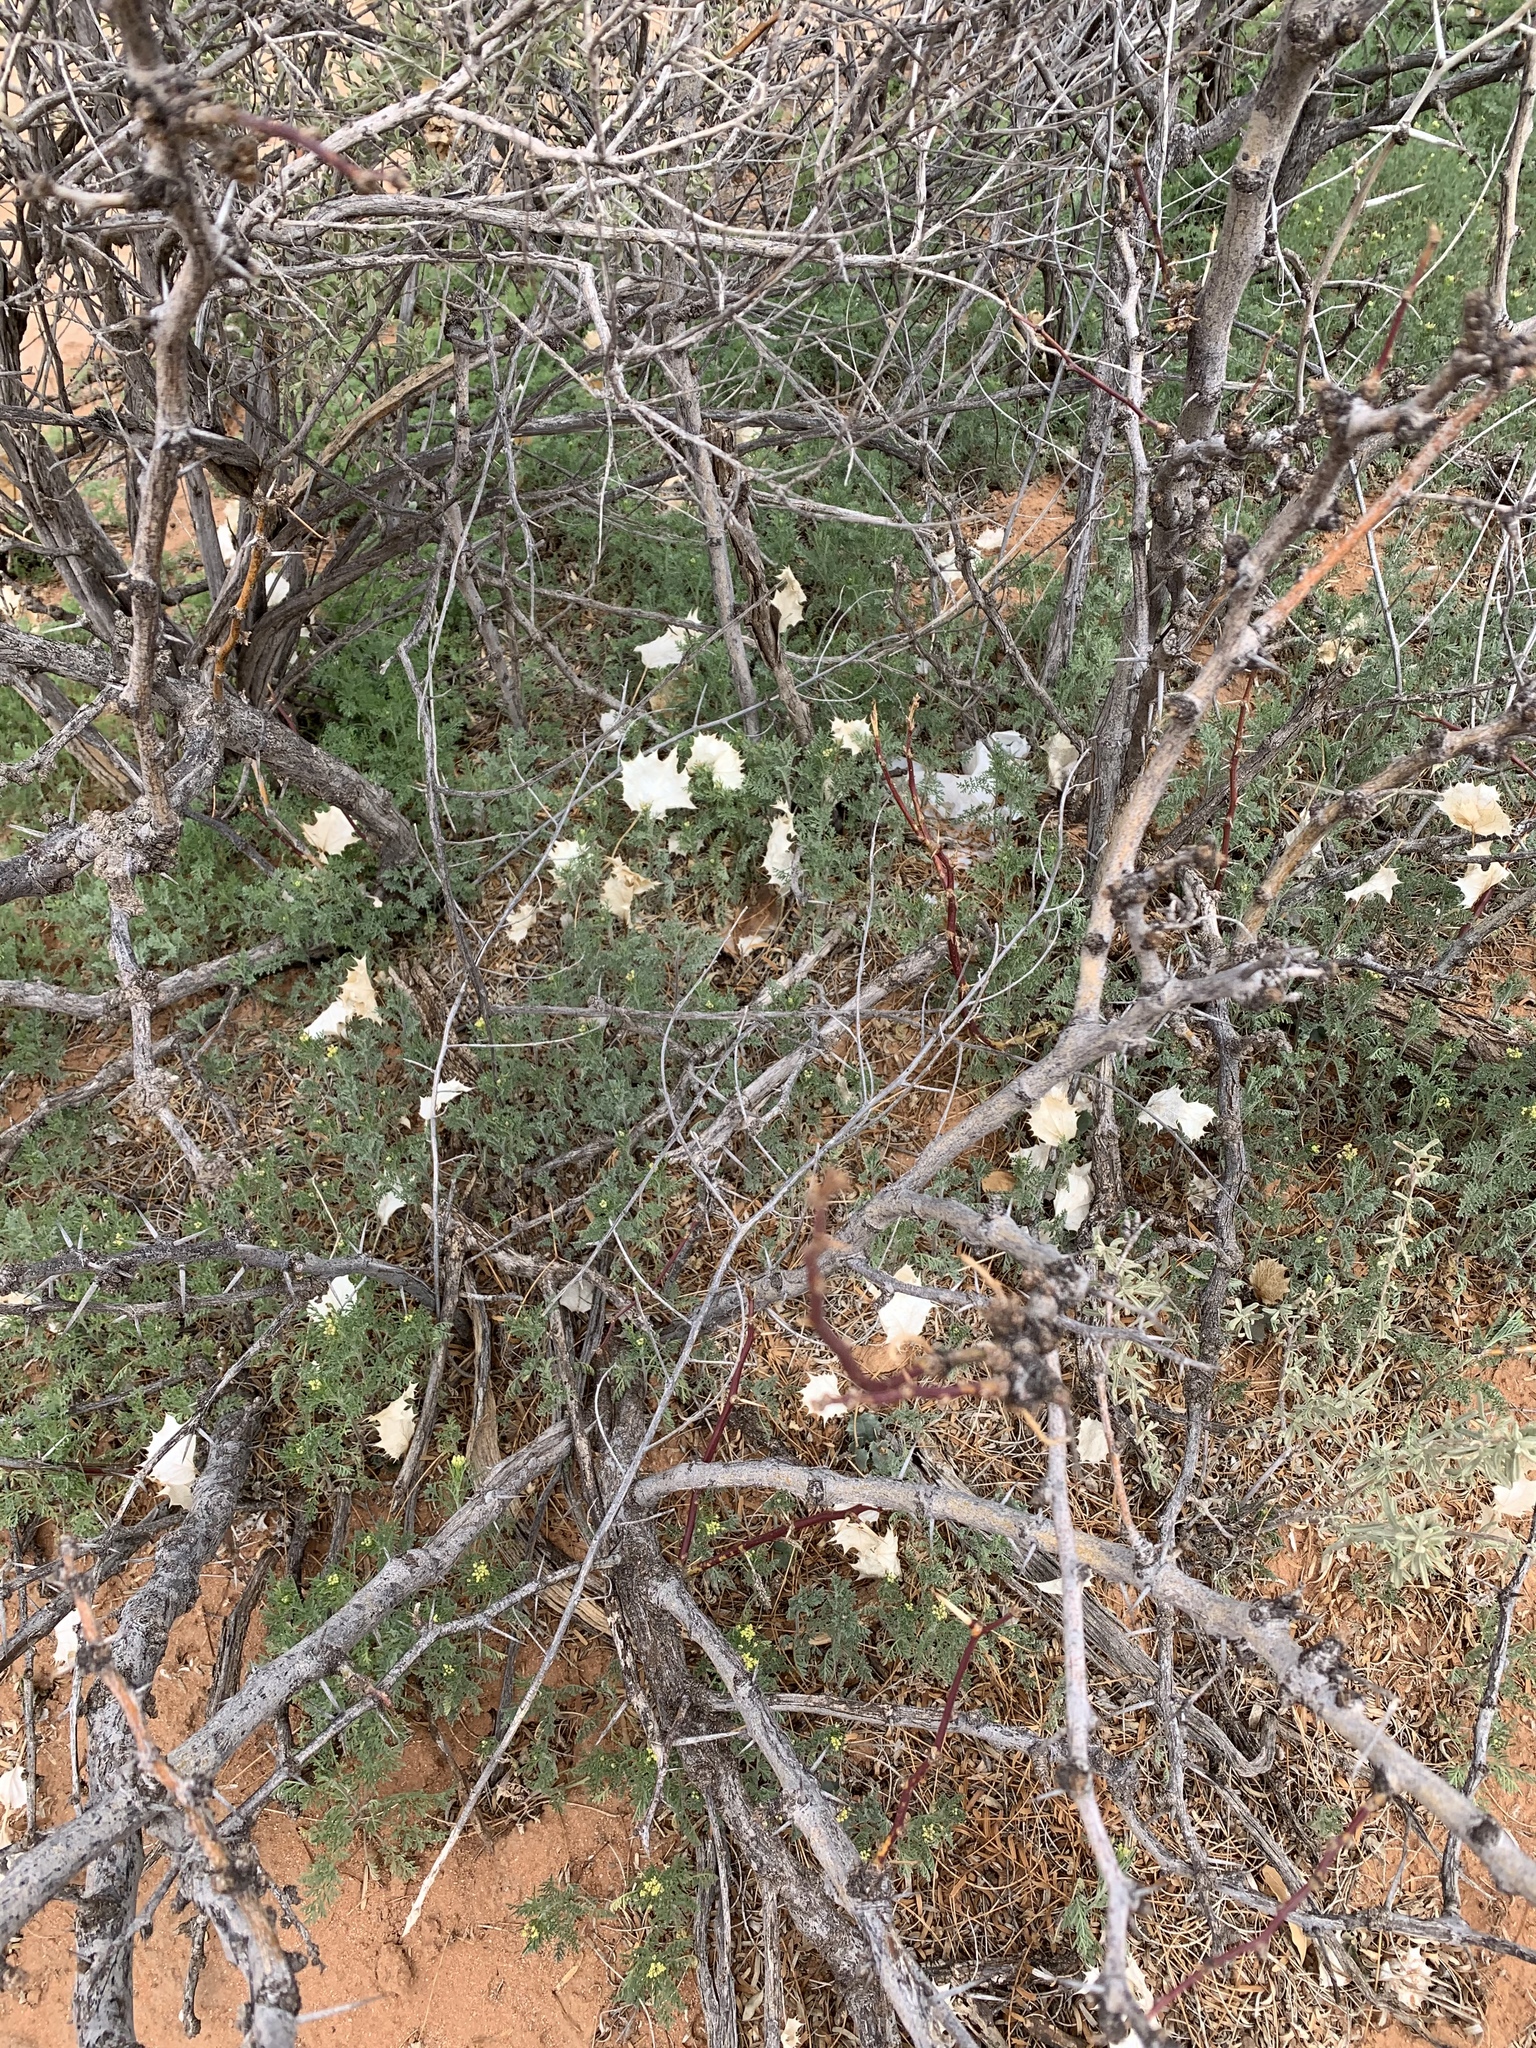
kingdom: Plantae
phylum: Tracheophyta
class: Magnoliopsida
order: Asterales
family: Asteraceae
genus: Acourtia
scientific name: Acourtia nana
